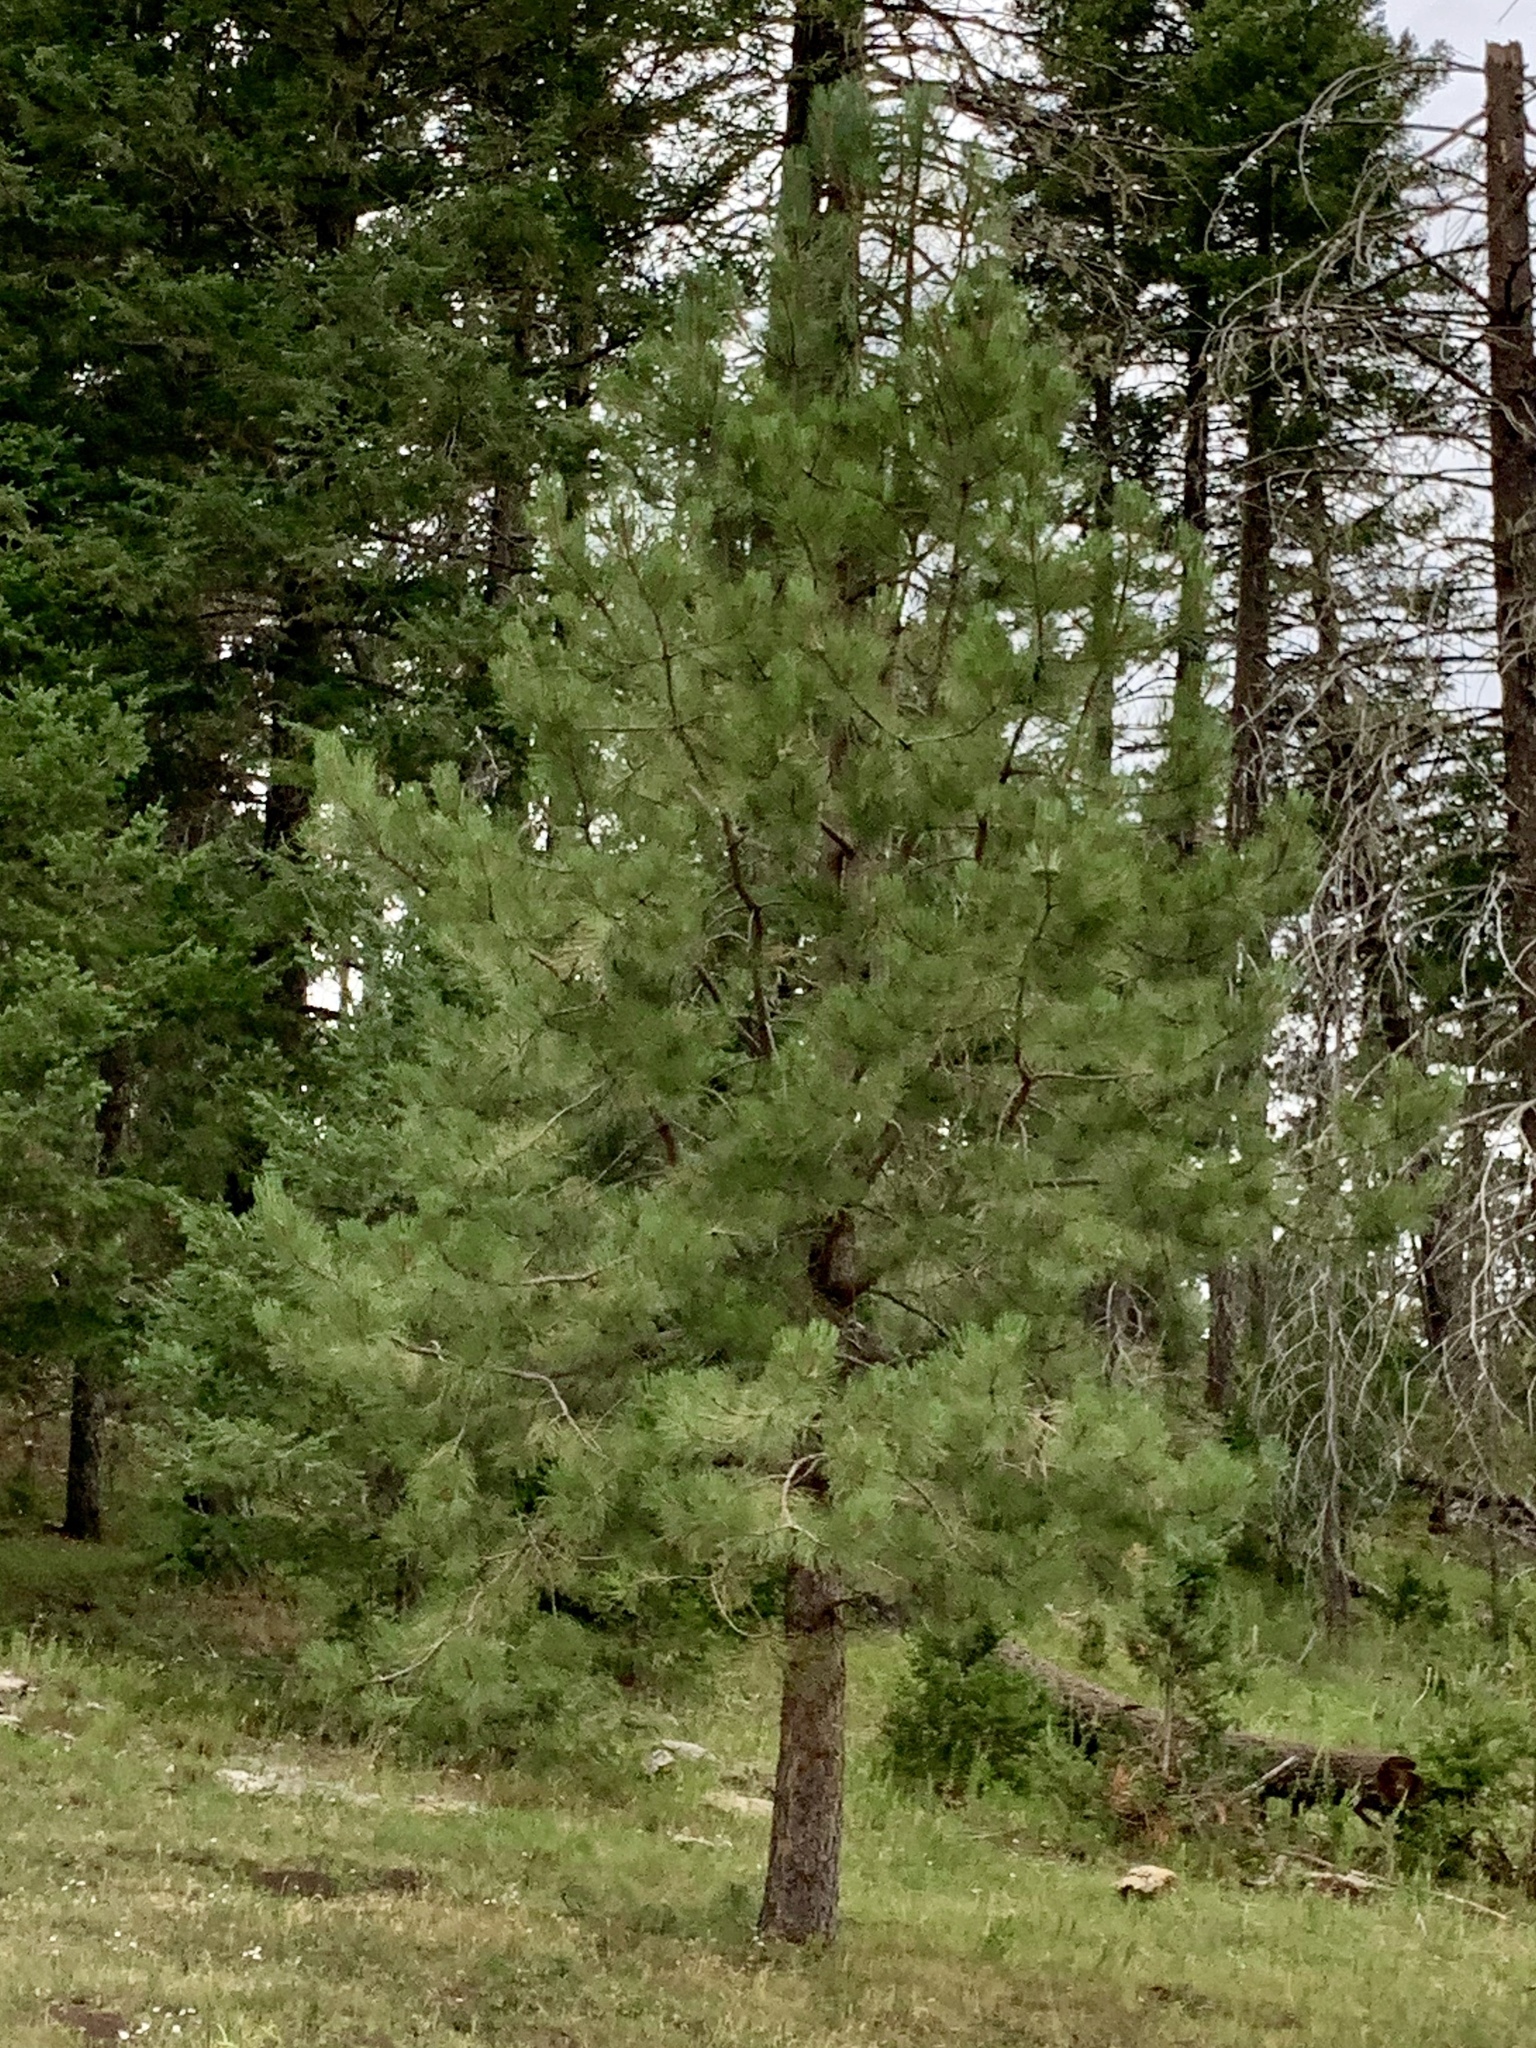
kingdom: Plantae
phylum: Tracheophyta
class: Pinopsida
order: Pinales
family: Pinaceae
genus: Pinus
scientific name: Pinus ponderosa
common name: Western yellow-pine
